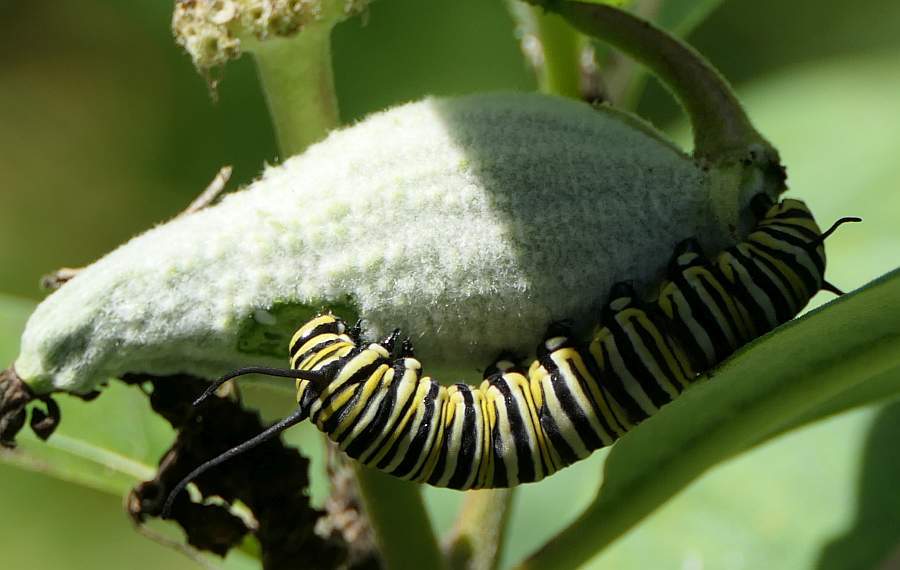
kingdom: Animalia
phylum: Arthropoda
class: Insecta
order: Lepidoptera
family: Nymphalidae
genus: Danaus
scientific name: Danaus plexippus
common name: Monarch
